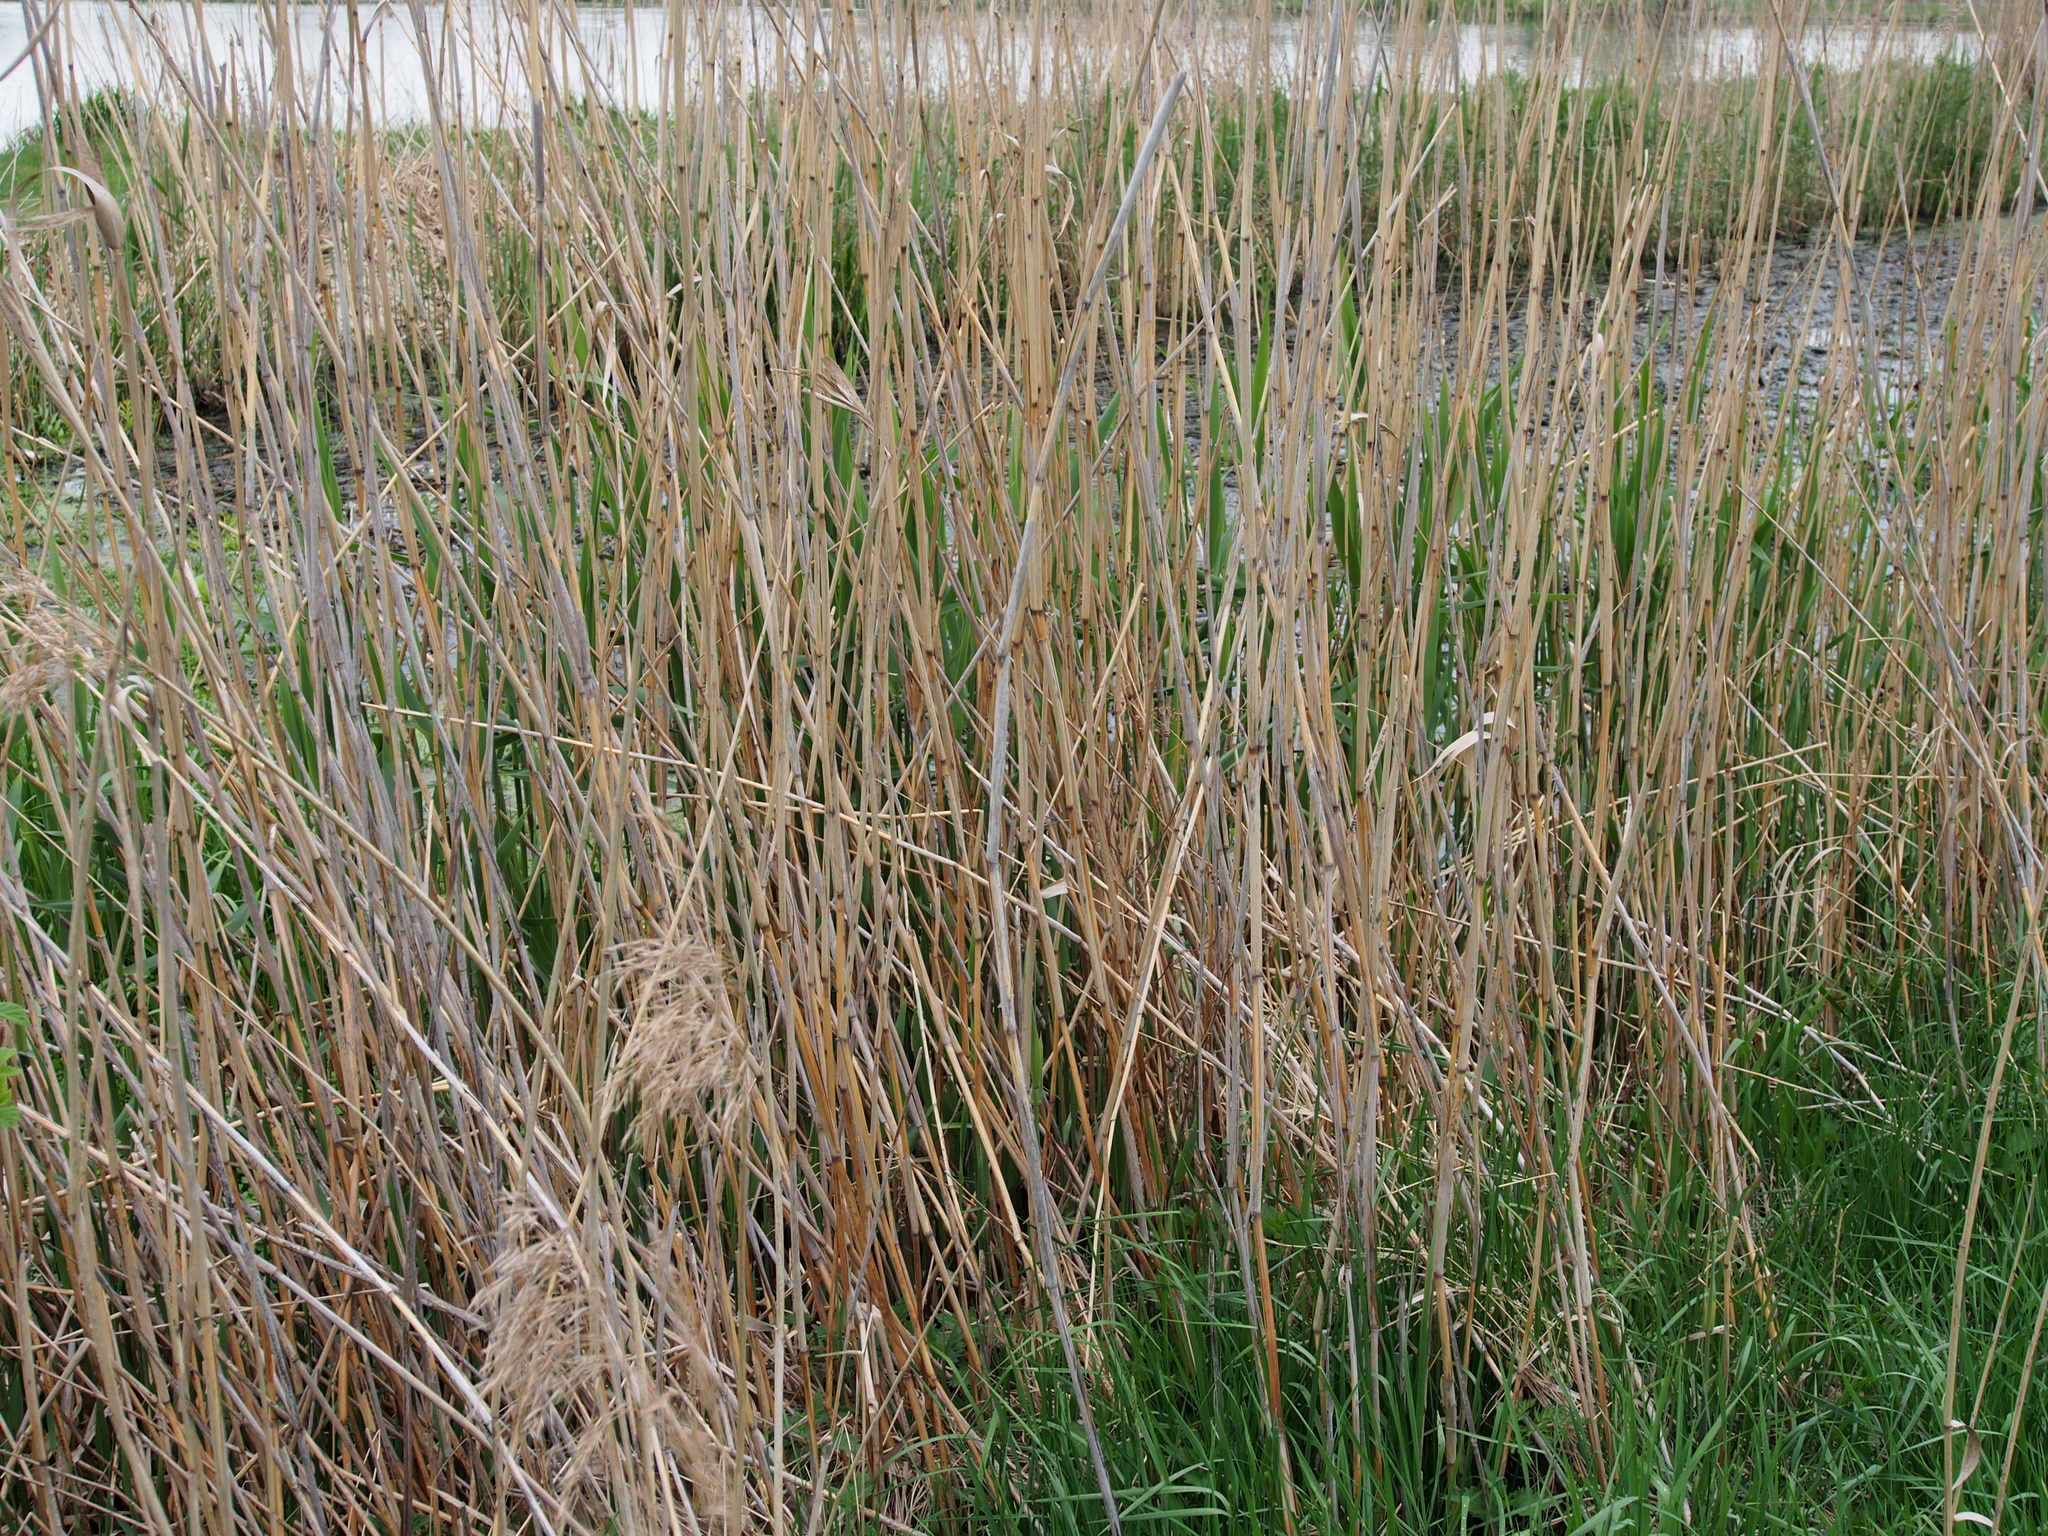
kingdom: Plantae
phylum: Tracheophyta
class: Liliopsida
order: Poales
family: Poaceae
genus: Phragmites
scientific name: Phragmites australis
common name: Common reed
